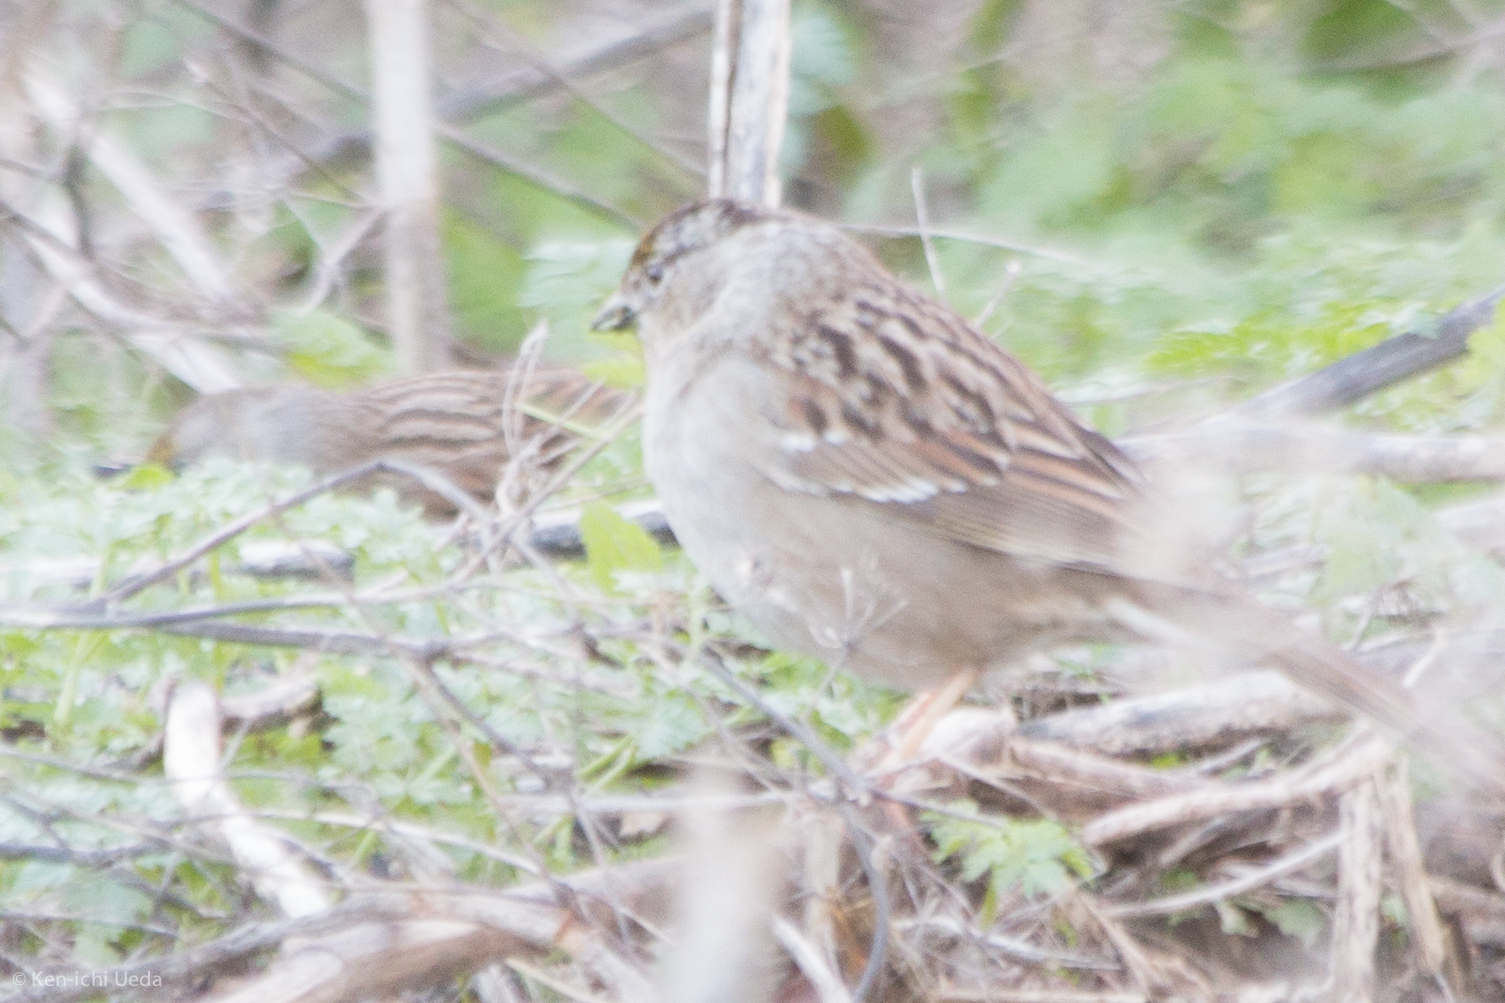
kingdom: Animalia
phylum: Chordata
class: Aves
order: Passeriformes
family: Passerellidae
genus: Zonotrichia
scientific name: Zonotrichia atricapilla
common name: Golden-crowned sparrow
